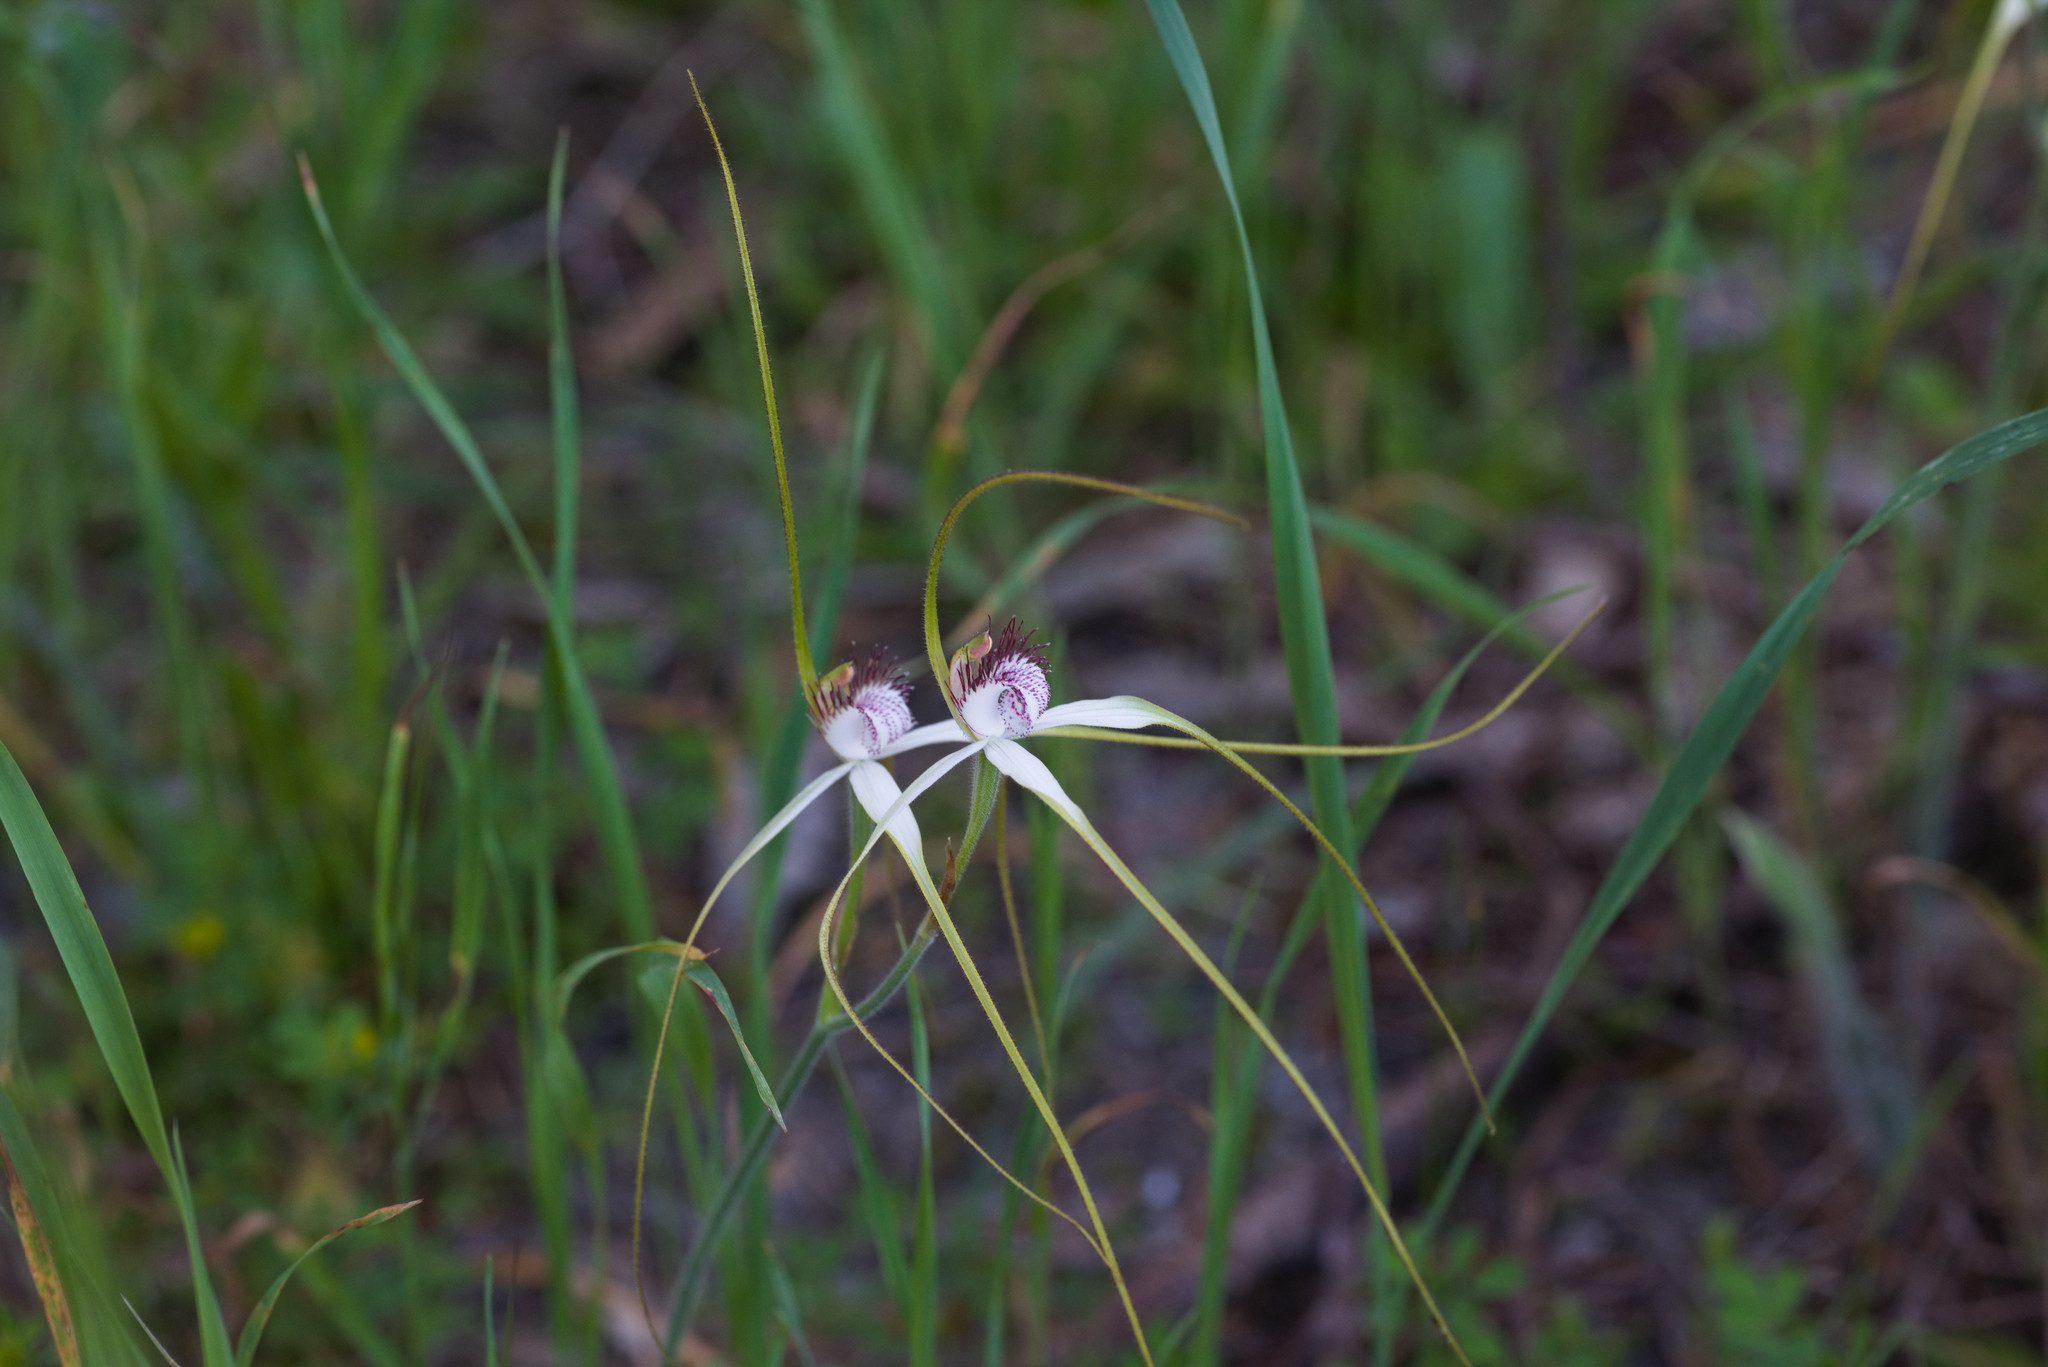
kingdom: Plantae
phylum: Tracheophyta
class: Liliopsida
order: Asparagales
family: Orchidaceae
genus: Caladenia
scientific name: Caladenia longicauda
